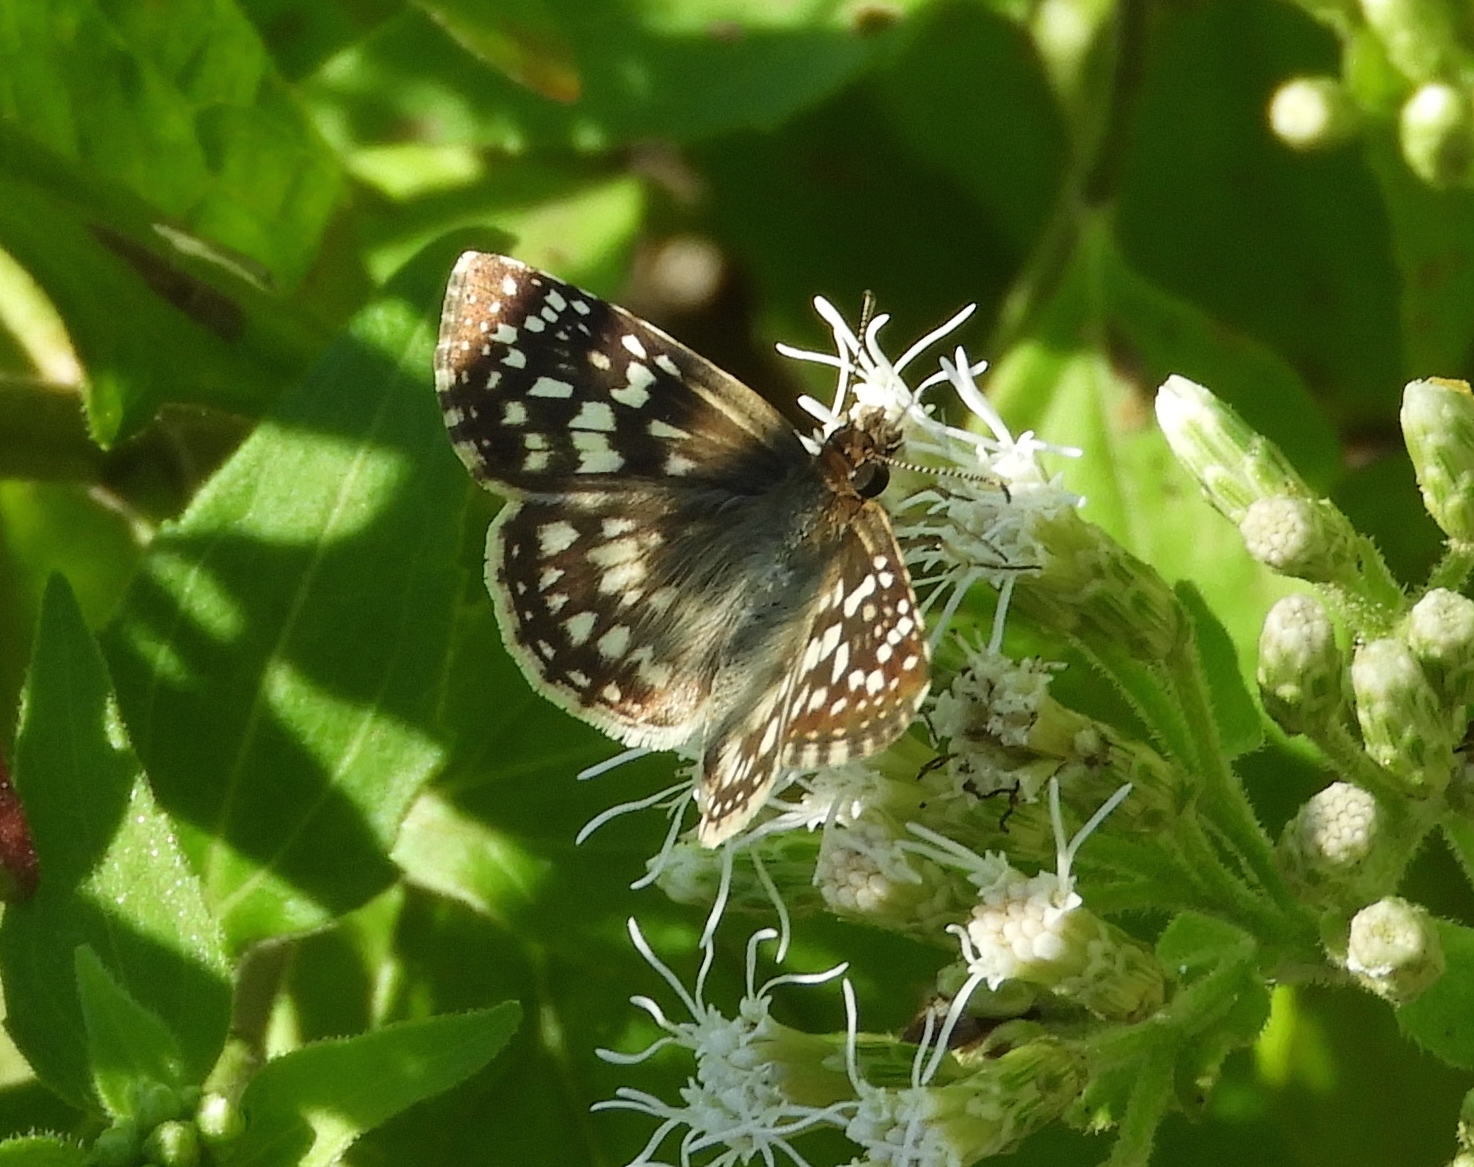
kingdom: Animalia
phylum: Arthropoda
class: Insecta
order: Lepidoptera
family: Hesperiidae
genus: Pyrgus
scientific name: Pyrgus oileus
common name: Tropical checkered-skipper
